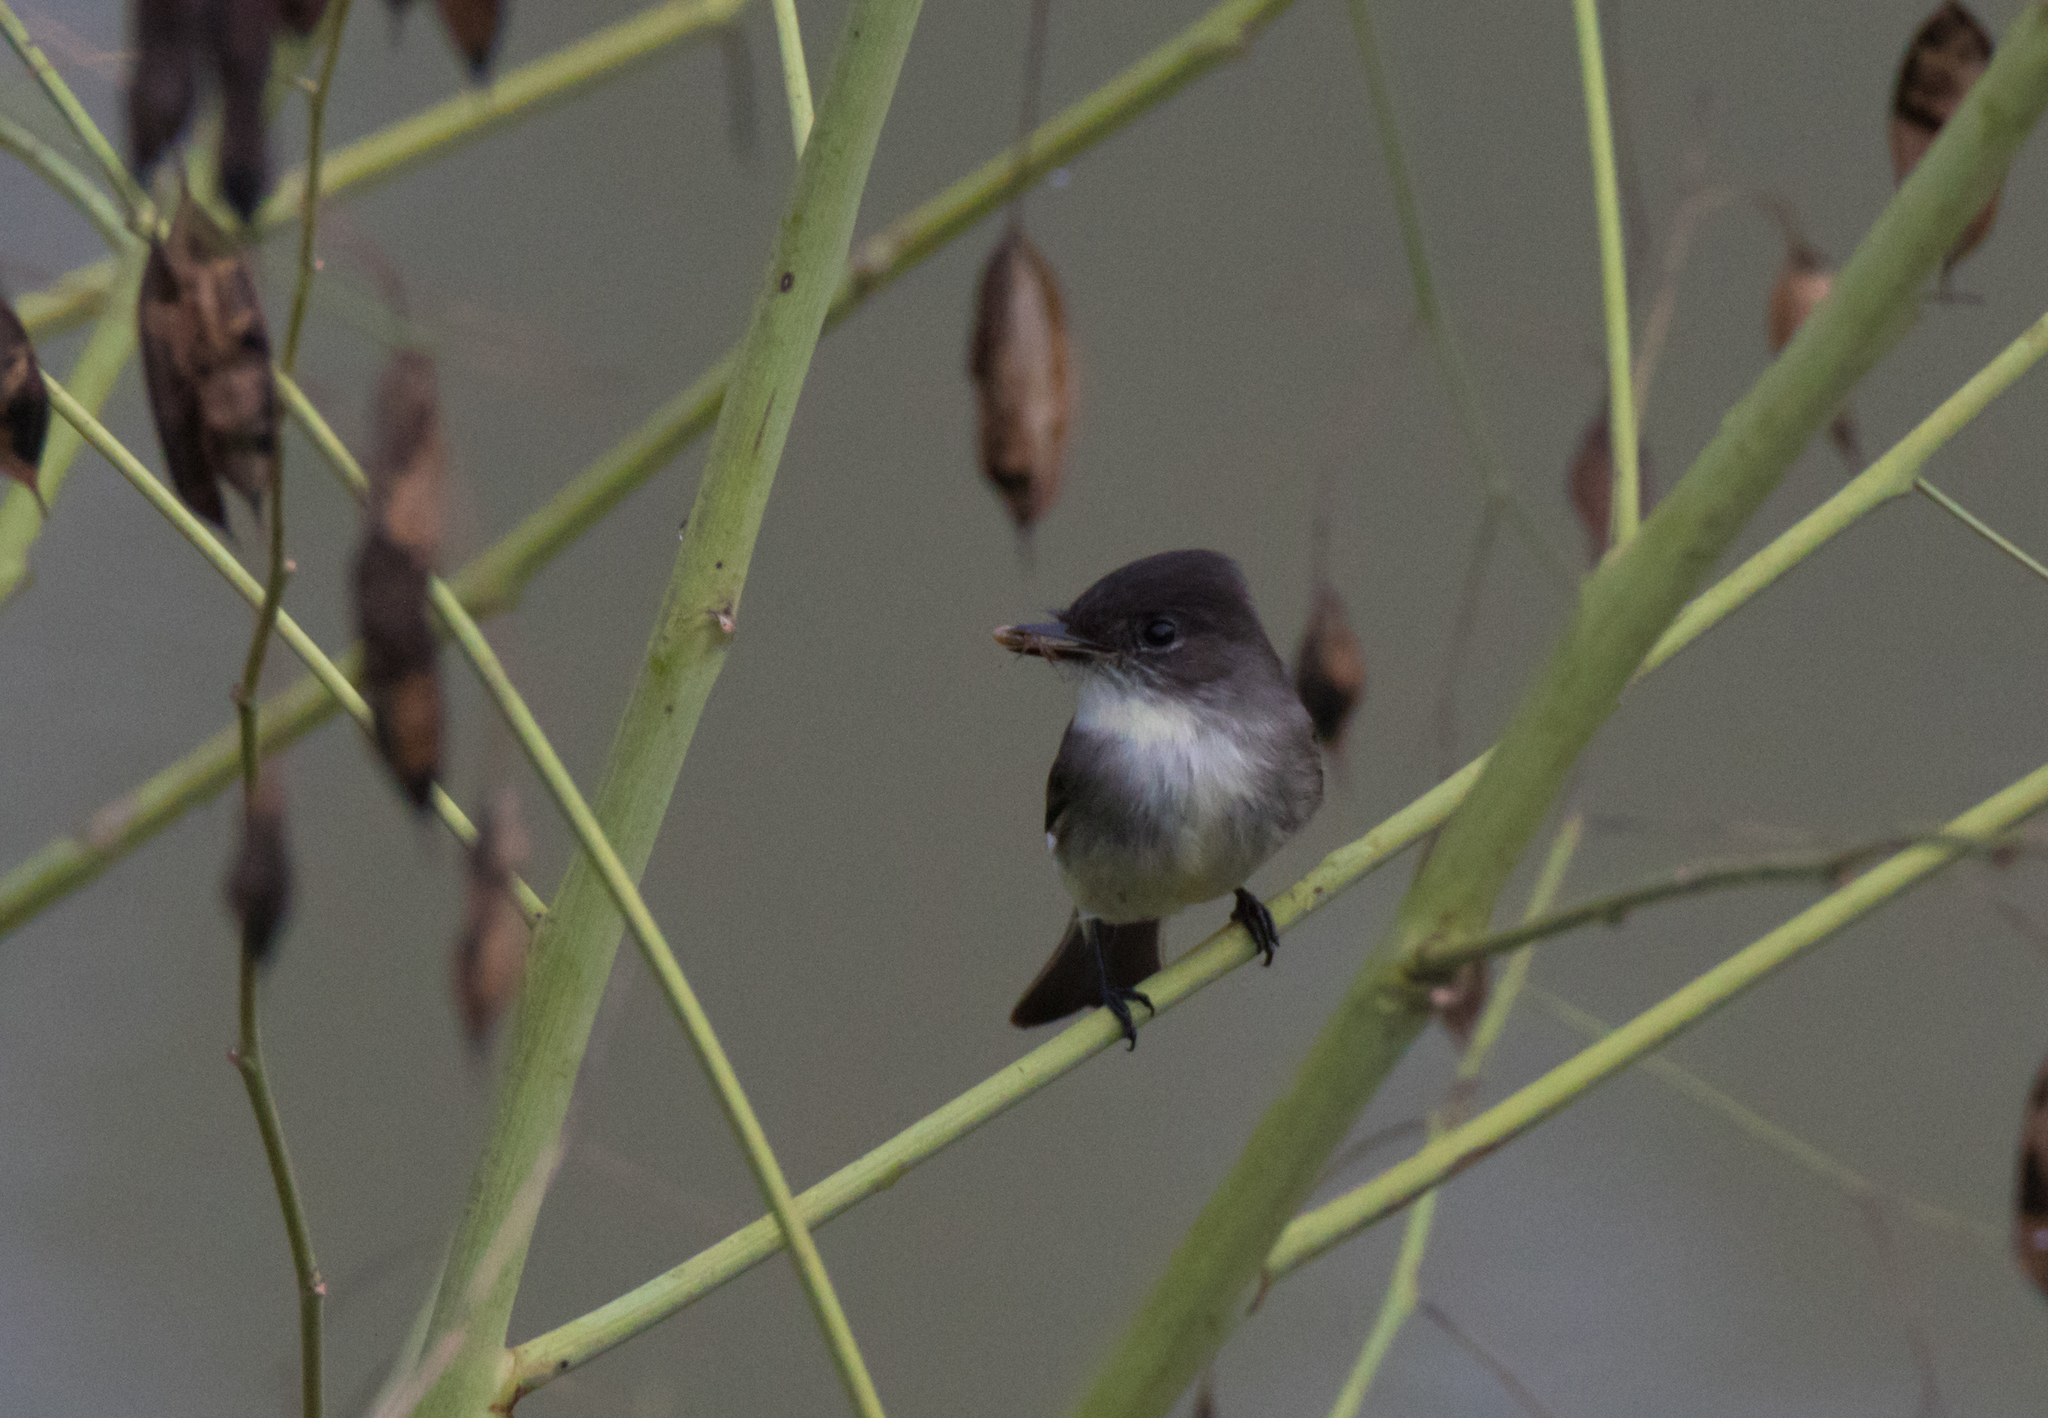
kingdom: Animalia
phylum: Chordata
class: Aves
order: Passeriformes
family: Tyrannidae
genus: Sayornis
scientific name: Sayornis phoebe
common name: Eastern phoebe
